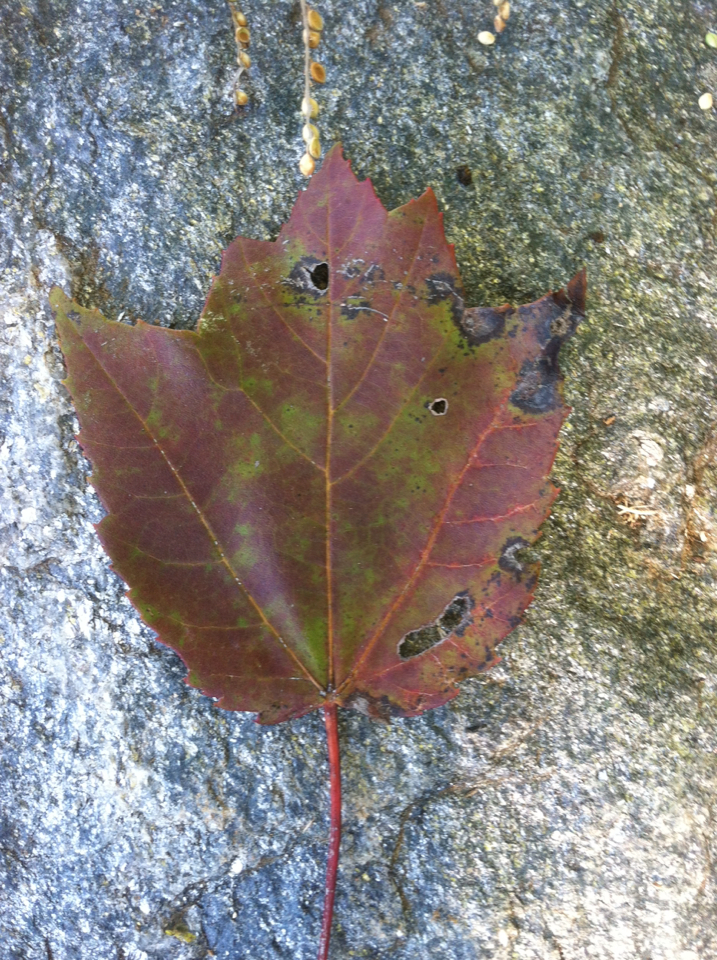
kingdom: Plantae
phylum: Tracheophyta
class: Magnoliopsida
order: Sapindales
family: Sapindaceae
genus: Acer
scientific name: Acer rubrum
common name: Red maple
